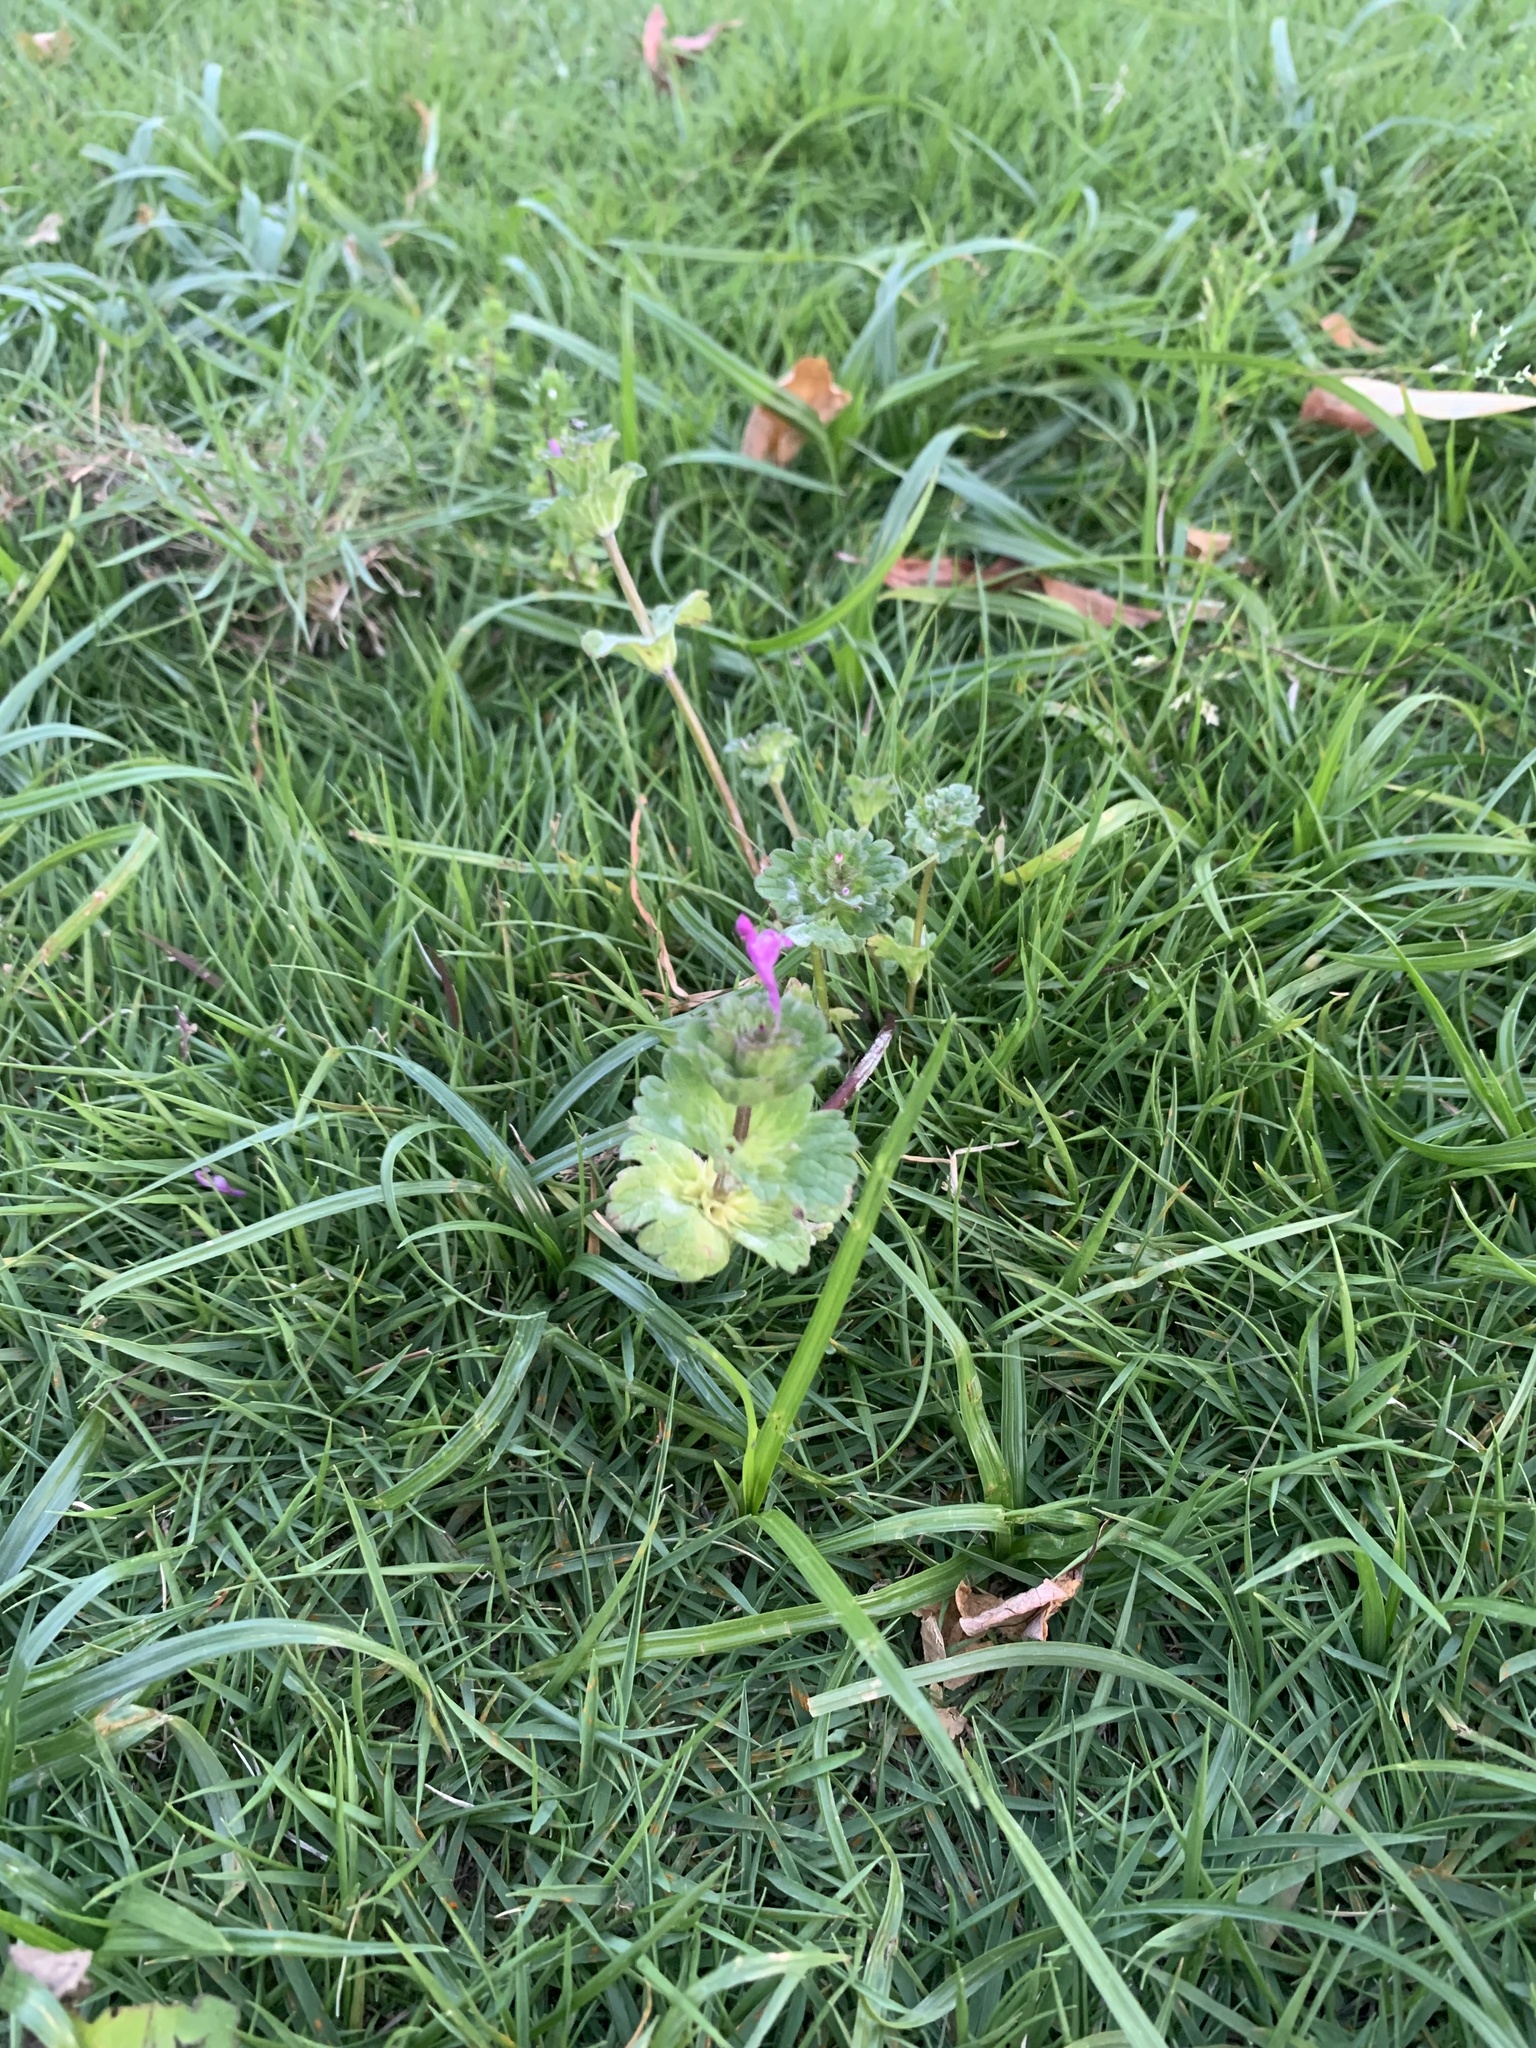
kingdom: Plantae
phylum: Tracheophyta
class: Magnoliopsida
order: Lamiales
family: Lamiaceae
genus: Lamium
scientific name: Lamium amplexicaule
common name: Henbit dead-nettle
